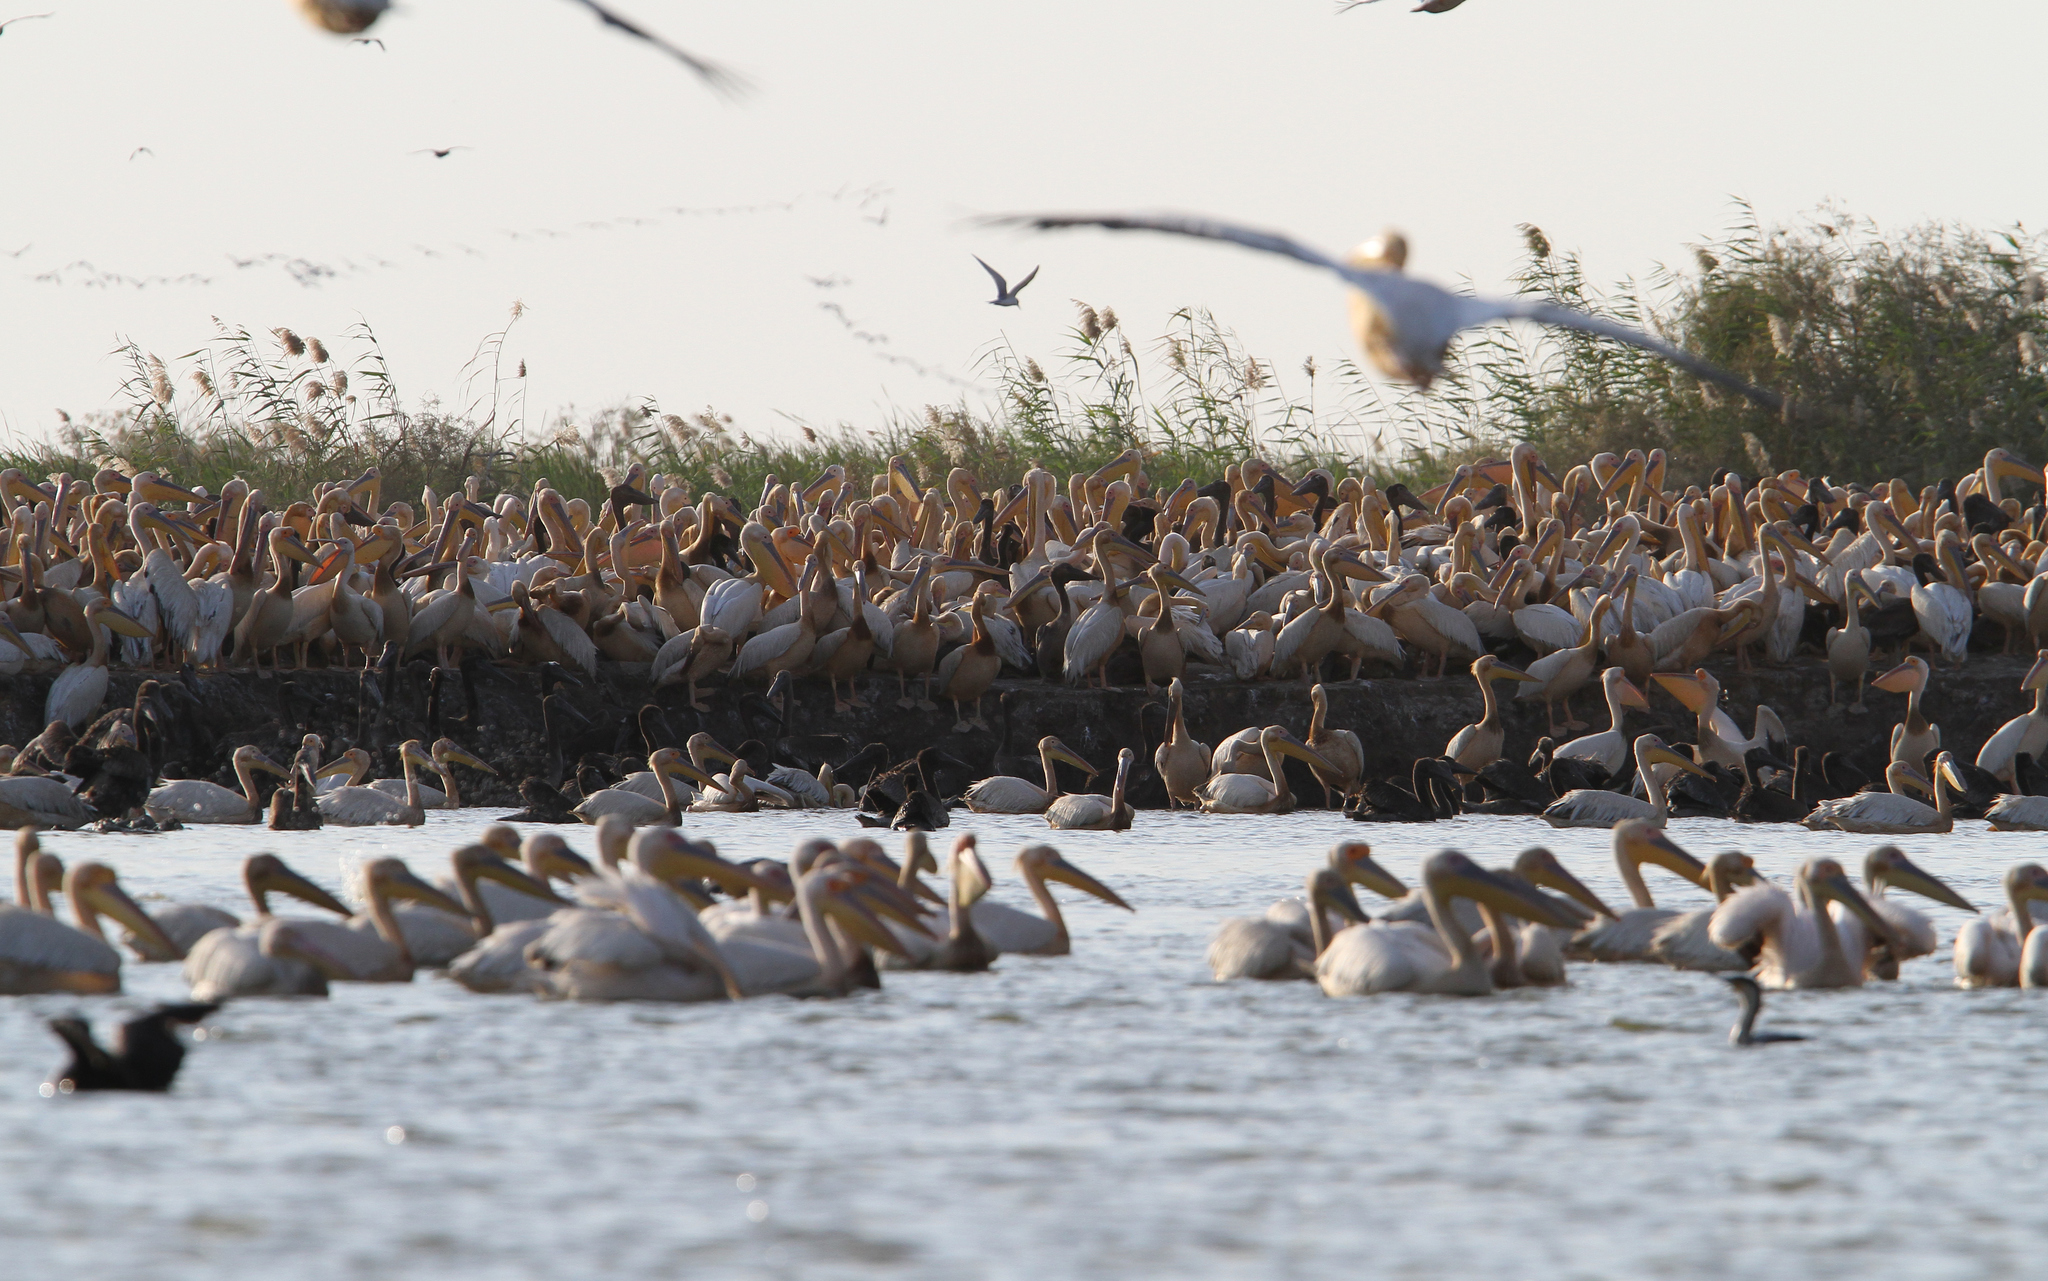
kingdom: Animalia
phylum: Chordata
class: Aves
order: Pelecaniformes
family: Pelecanidae
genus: Pelecanus
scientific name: Pelecanus onocrotalus
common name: Great white pelican
